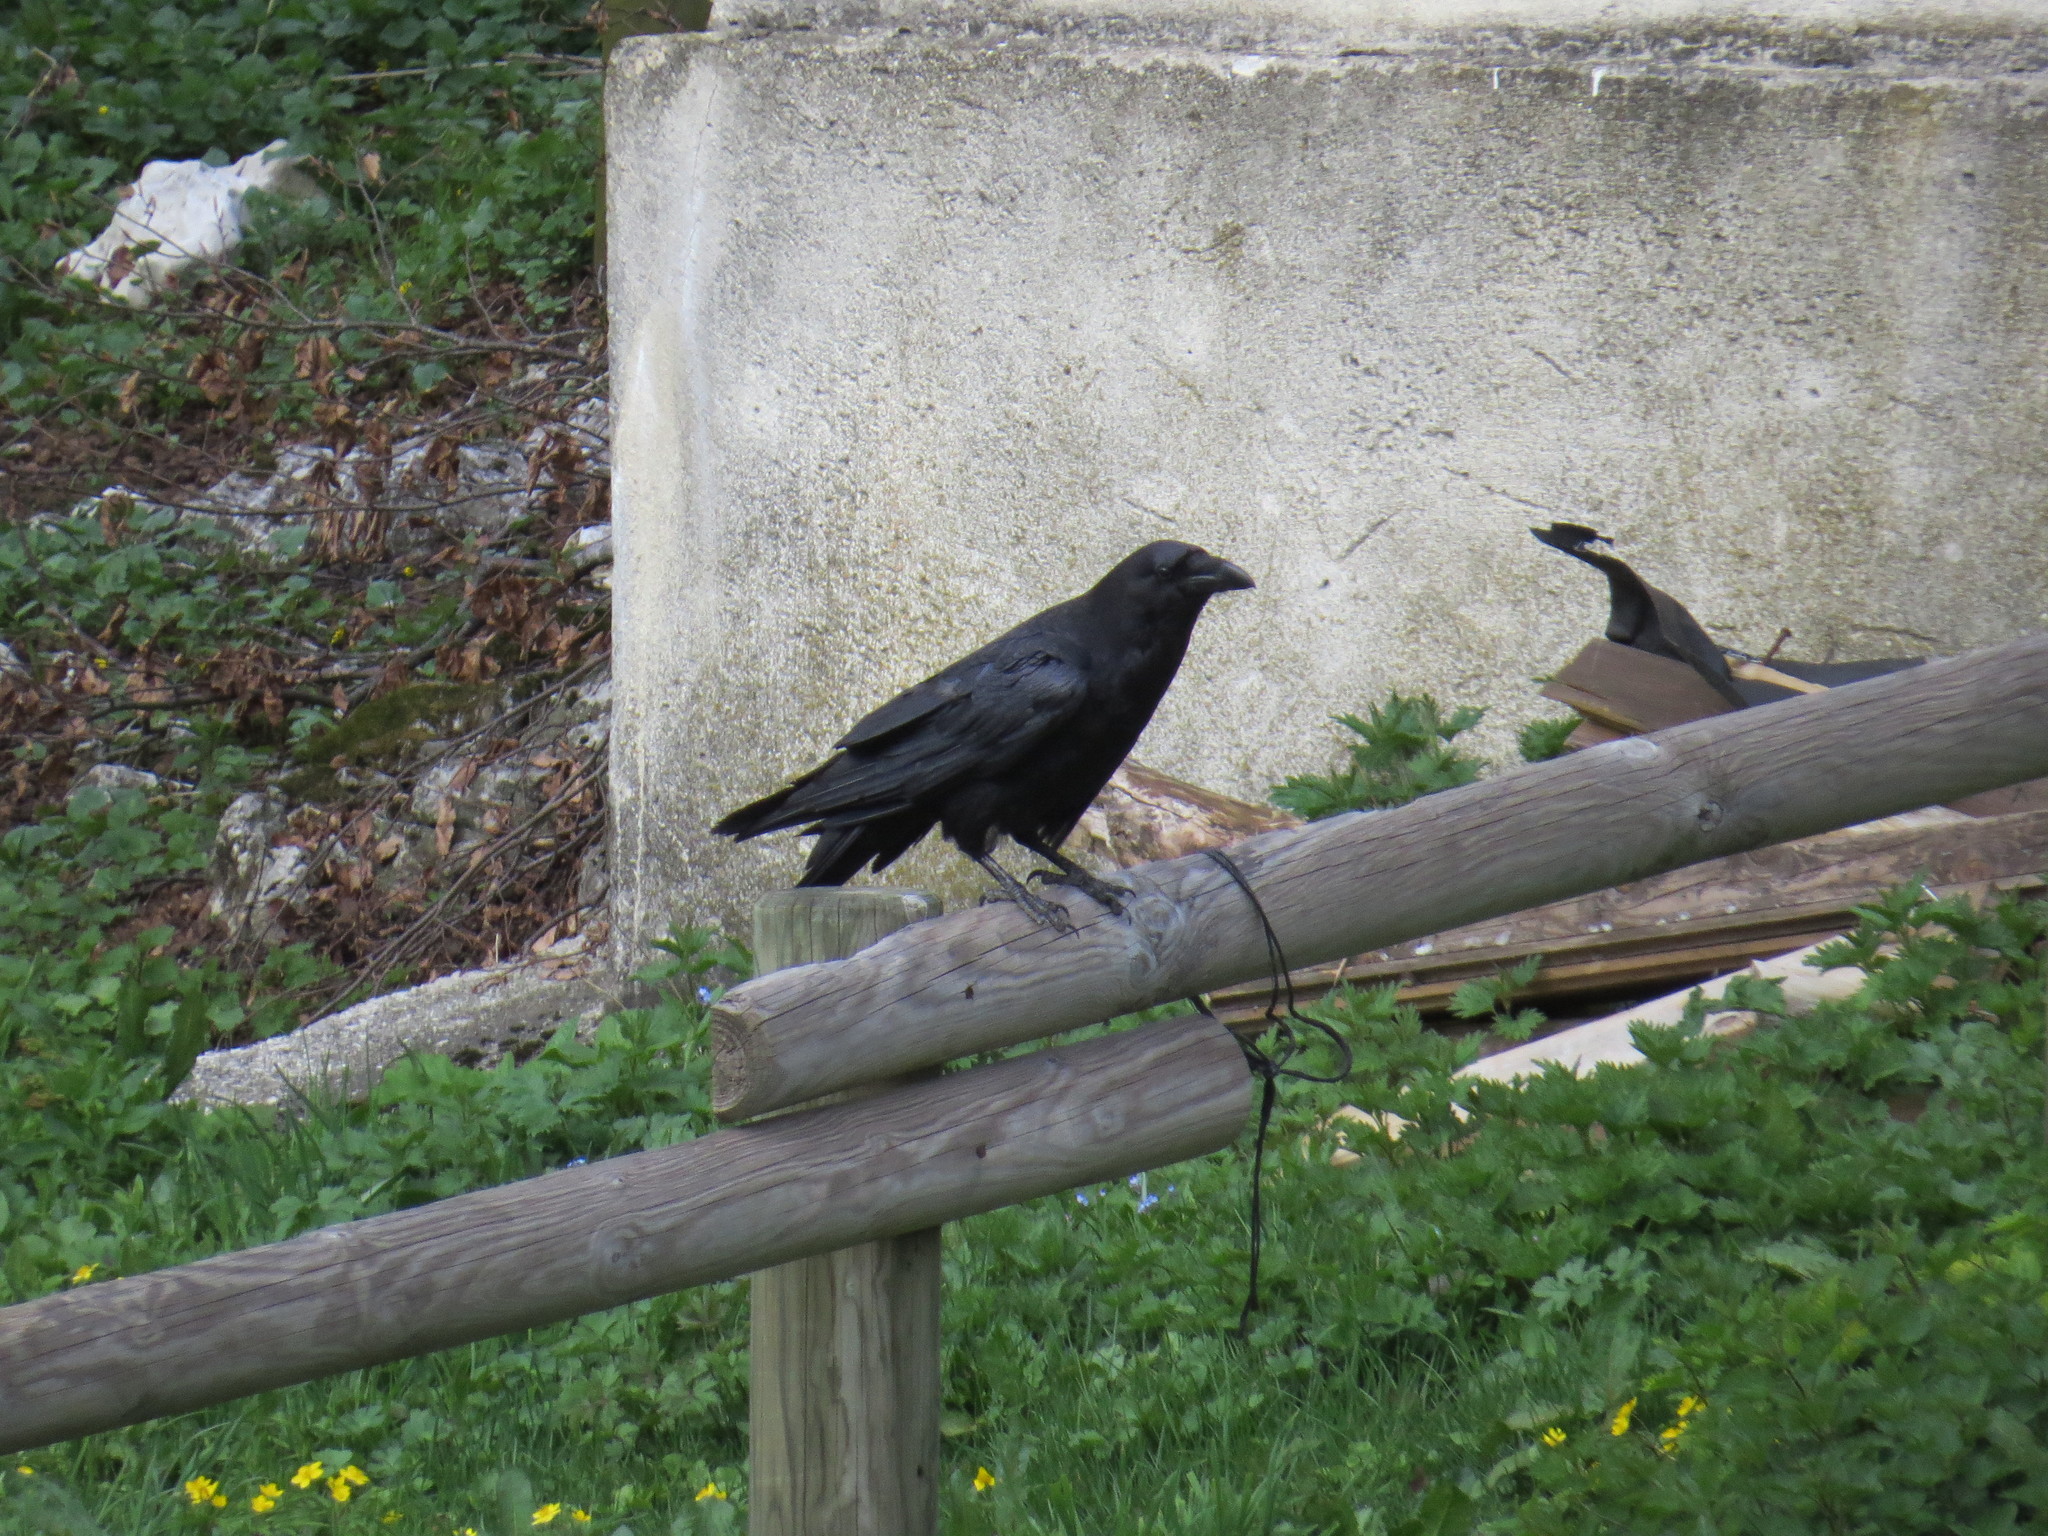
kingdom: Animalia
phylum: Chordata
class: Aves
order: Passeriformes
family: Corvidae
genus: Corvus
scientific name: Corvus corax
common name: Common raven
